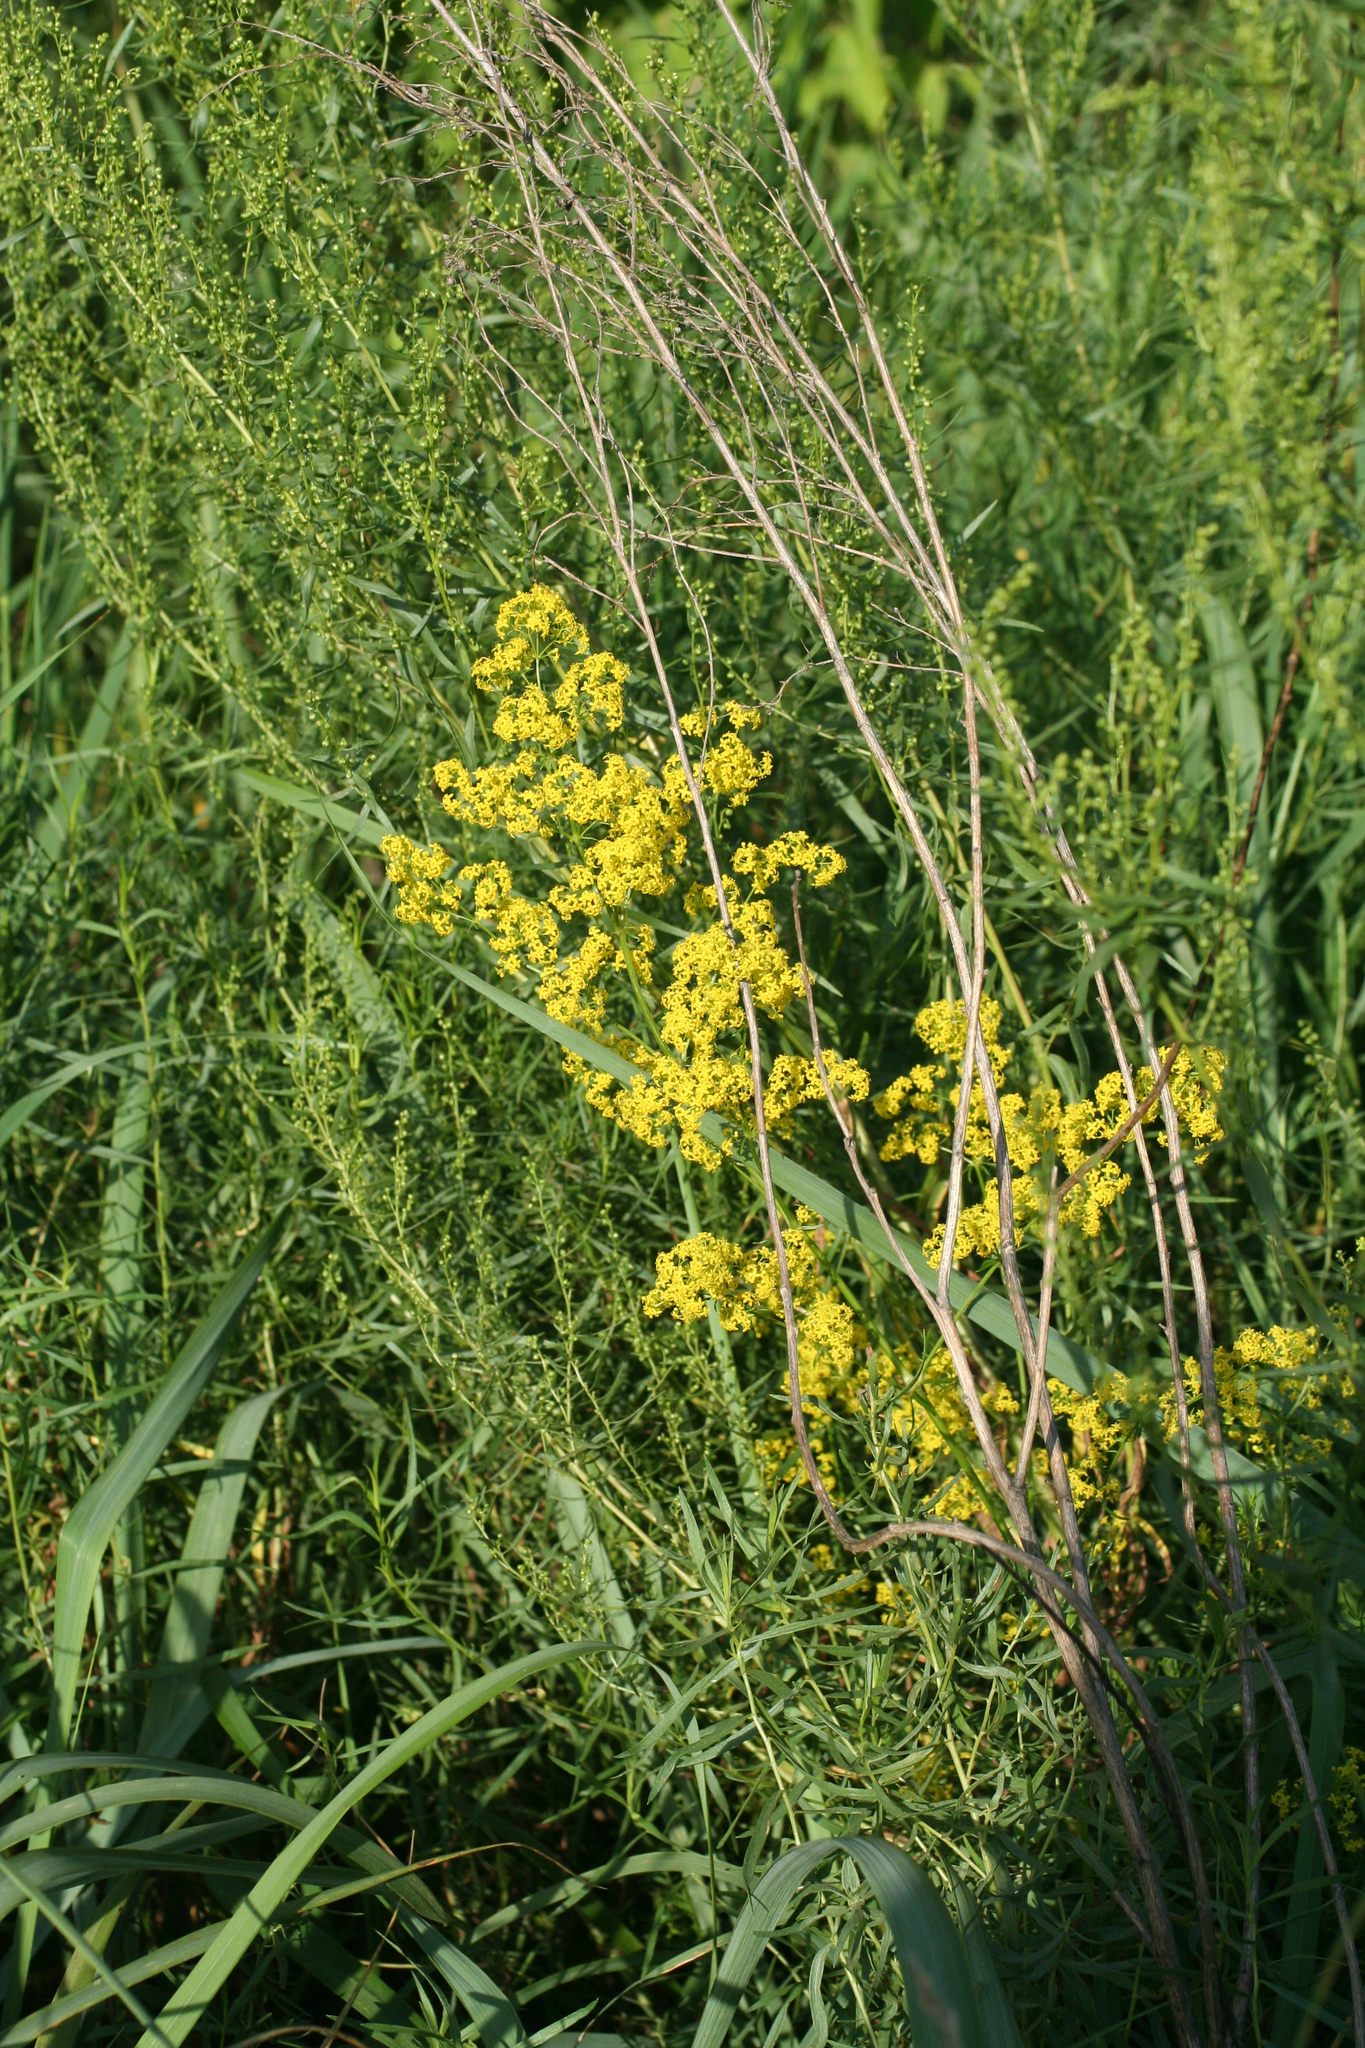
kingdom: Plantae
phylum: Tracheophyta
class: Magnoliopsida
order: Gentianales
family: Rubiaceae
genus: Galium
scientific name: Galium verum
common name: Lady's bedstraw
